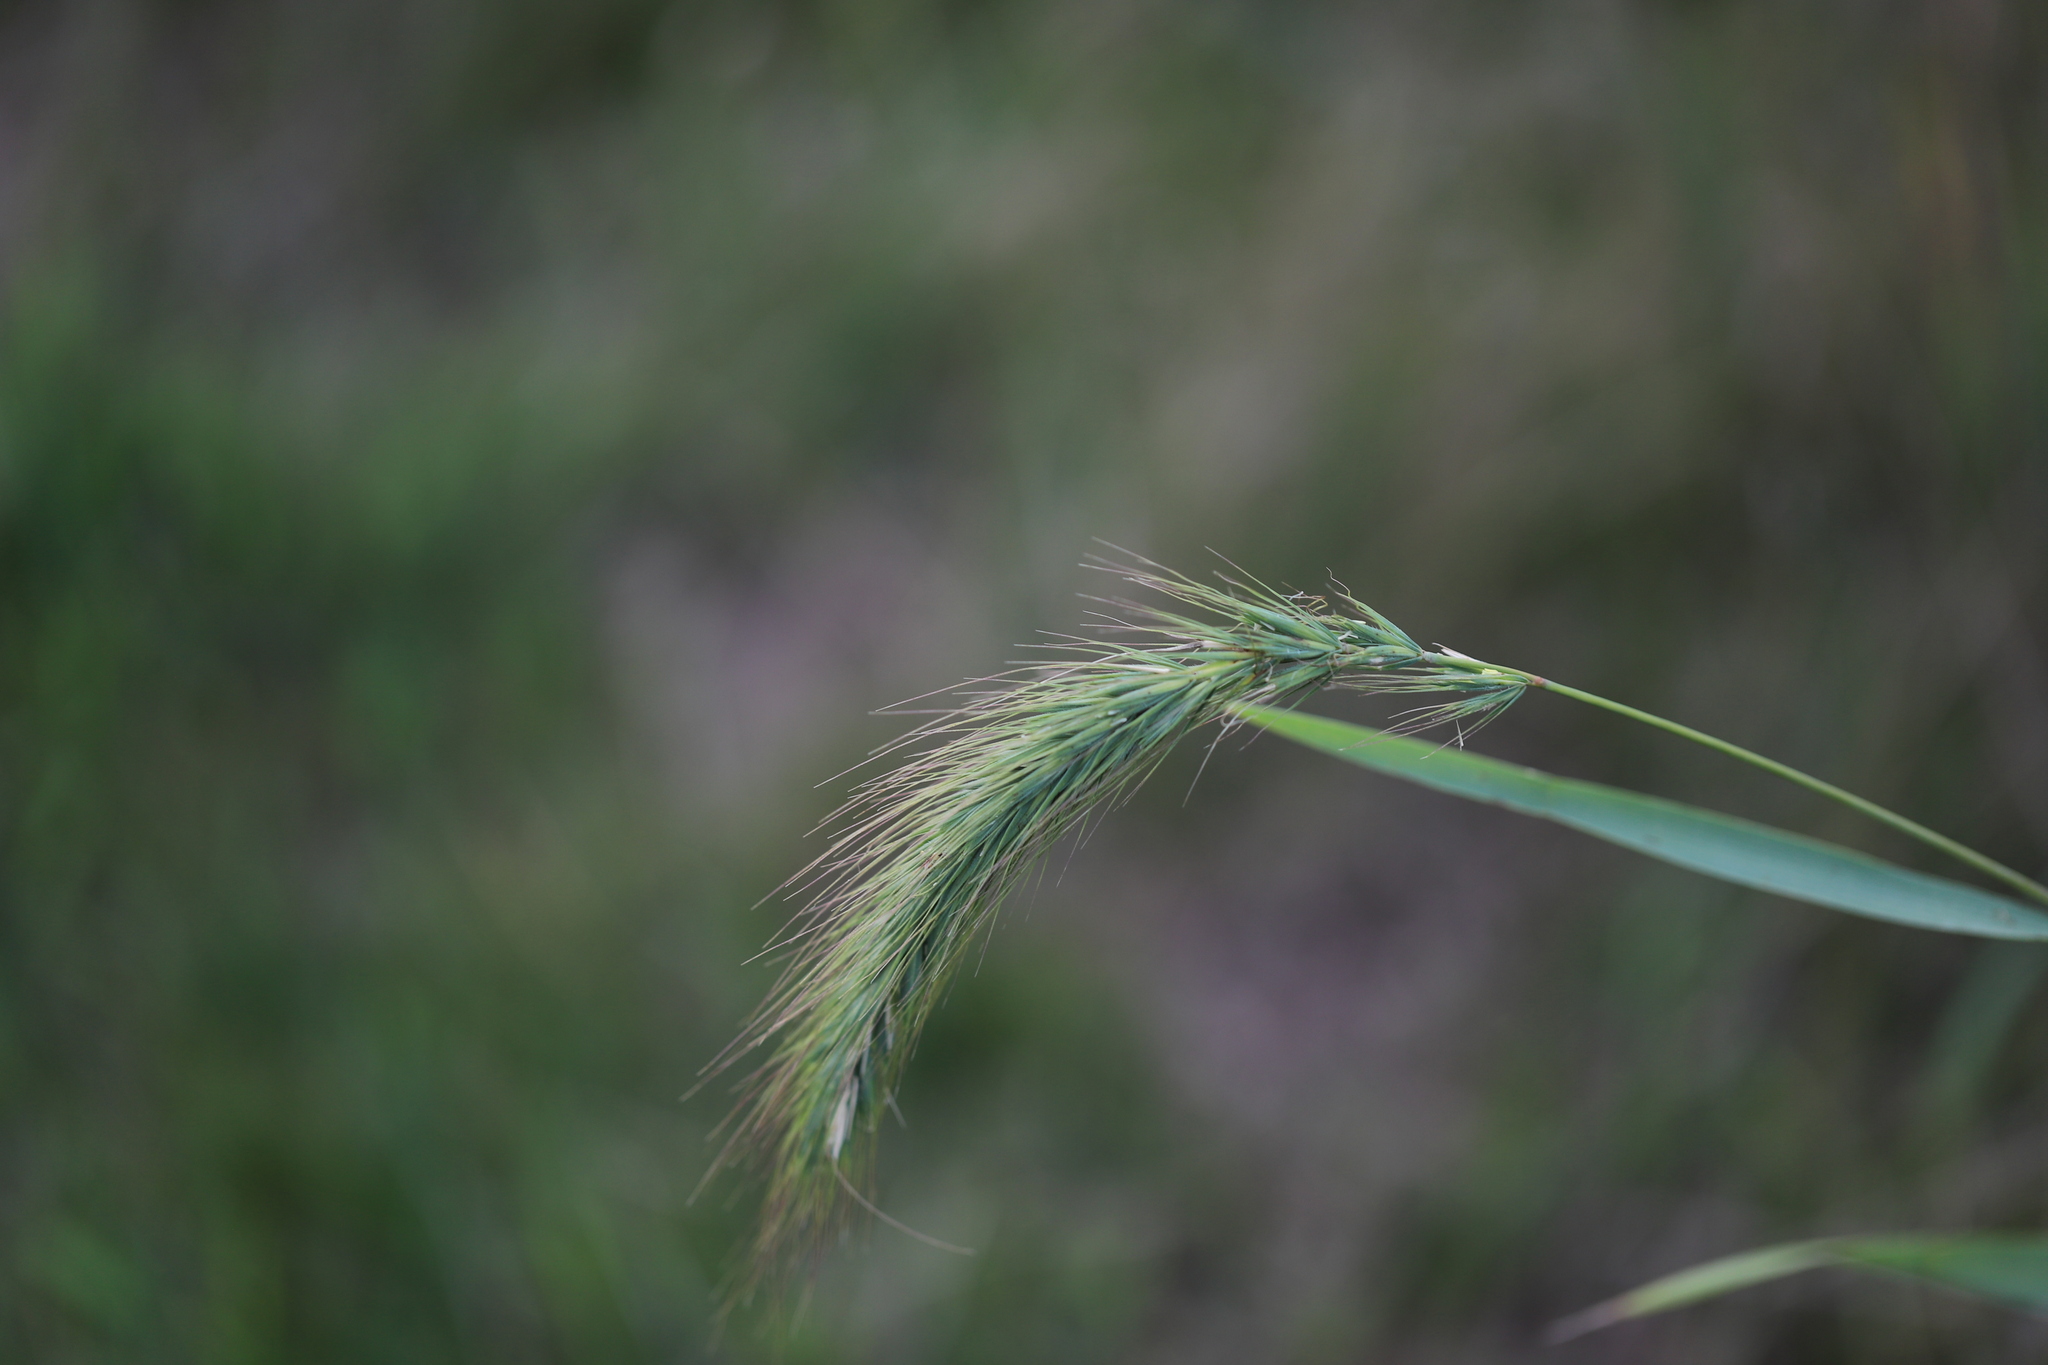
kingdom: Plantae
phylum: Tracheophyta
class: Liliopsida
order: Poales
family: Poaceae
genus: Elymus
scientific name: Elymus canadensis
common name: Canada wild rye
